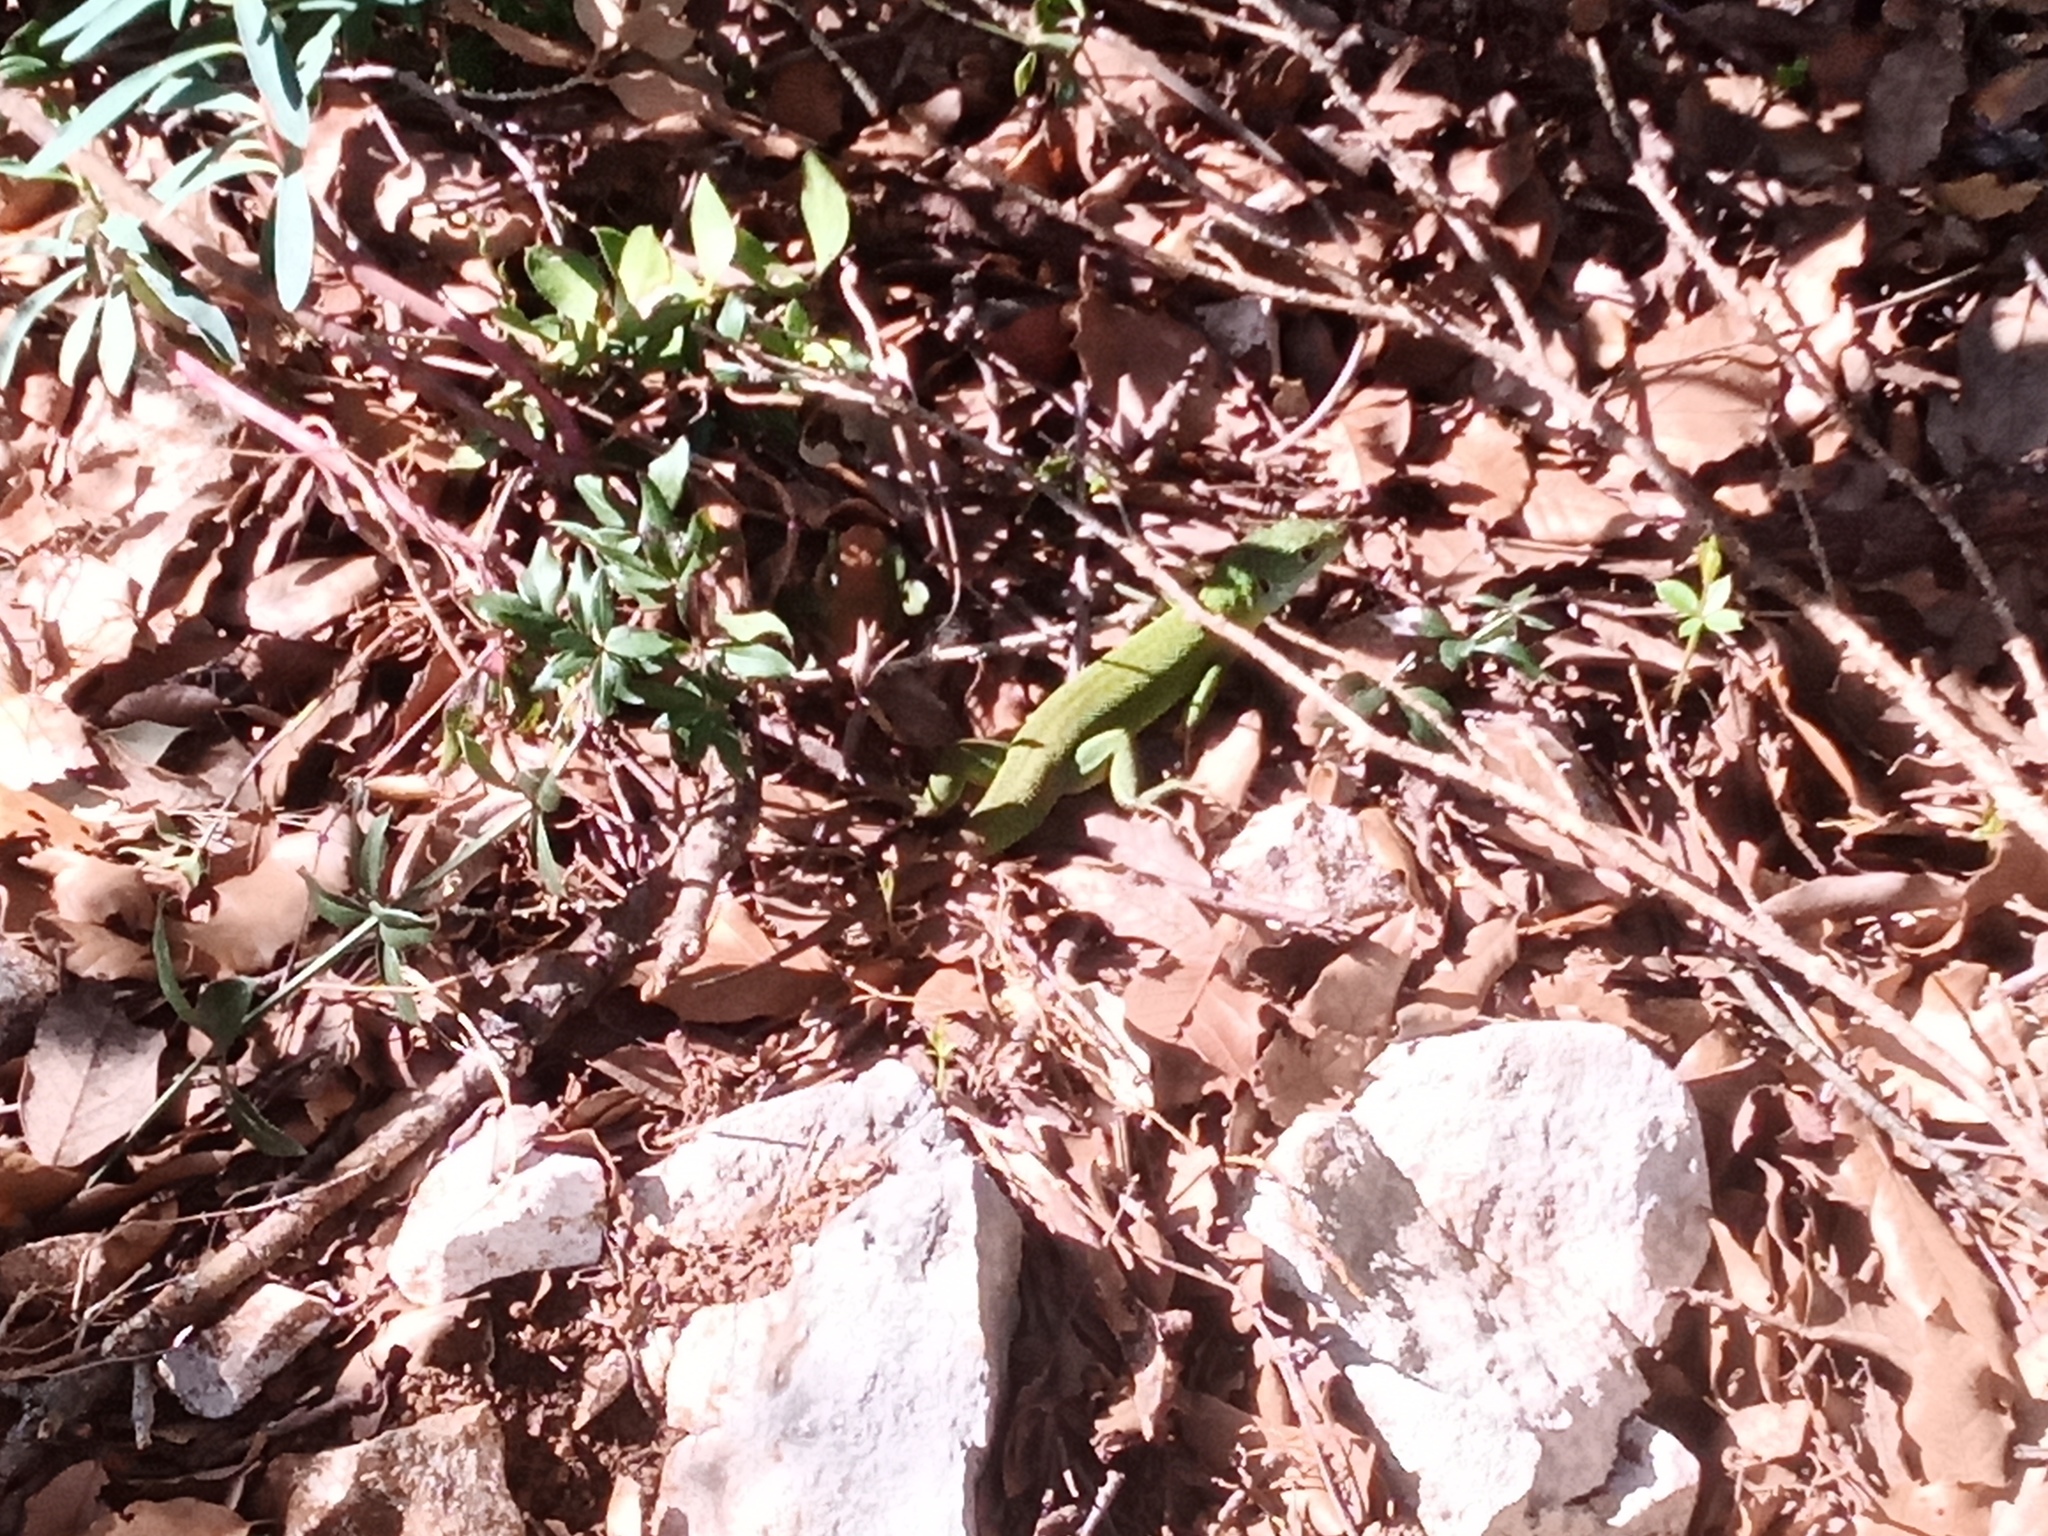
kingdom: Animalia
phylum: Chordata
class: Squamata
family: Lacertidae
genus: Lacerta
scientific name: Lacerta bilineata
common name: Western green lizard
